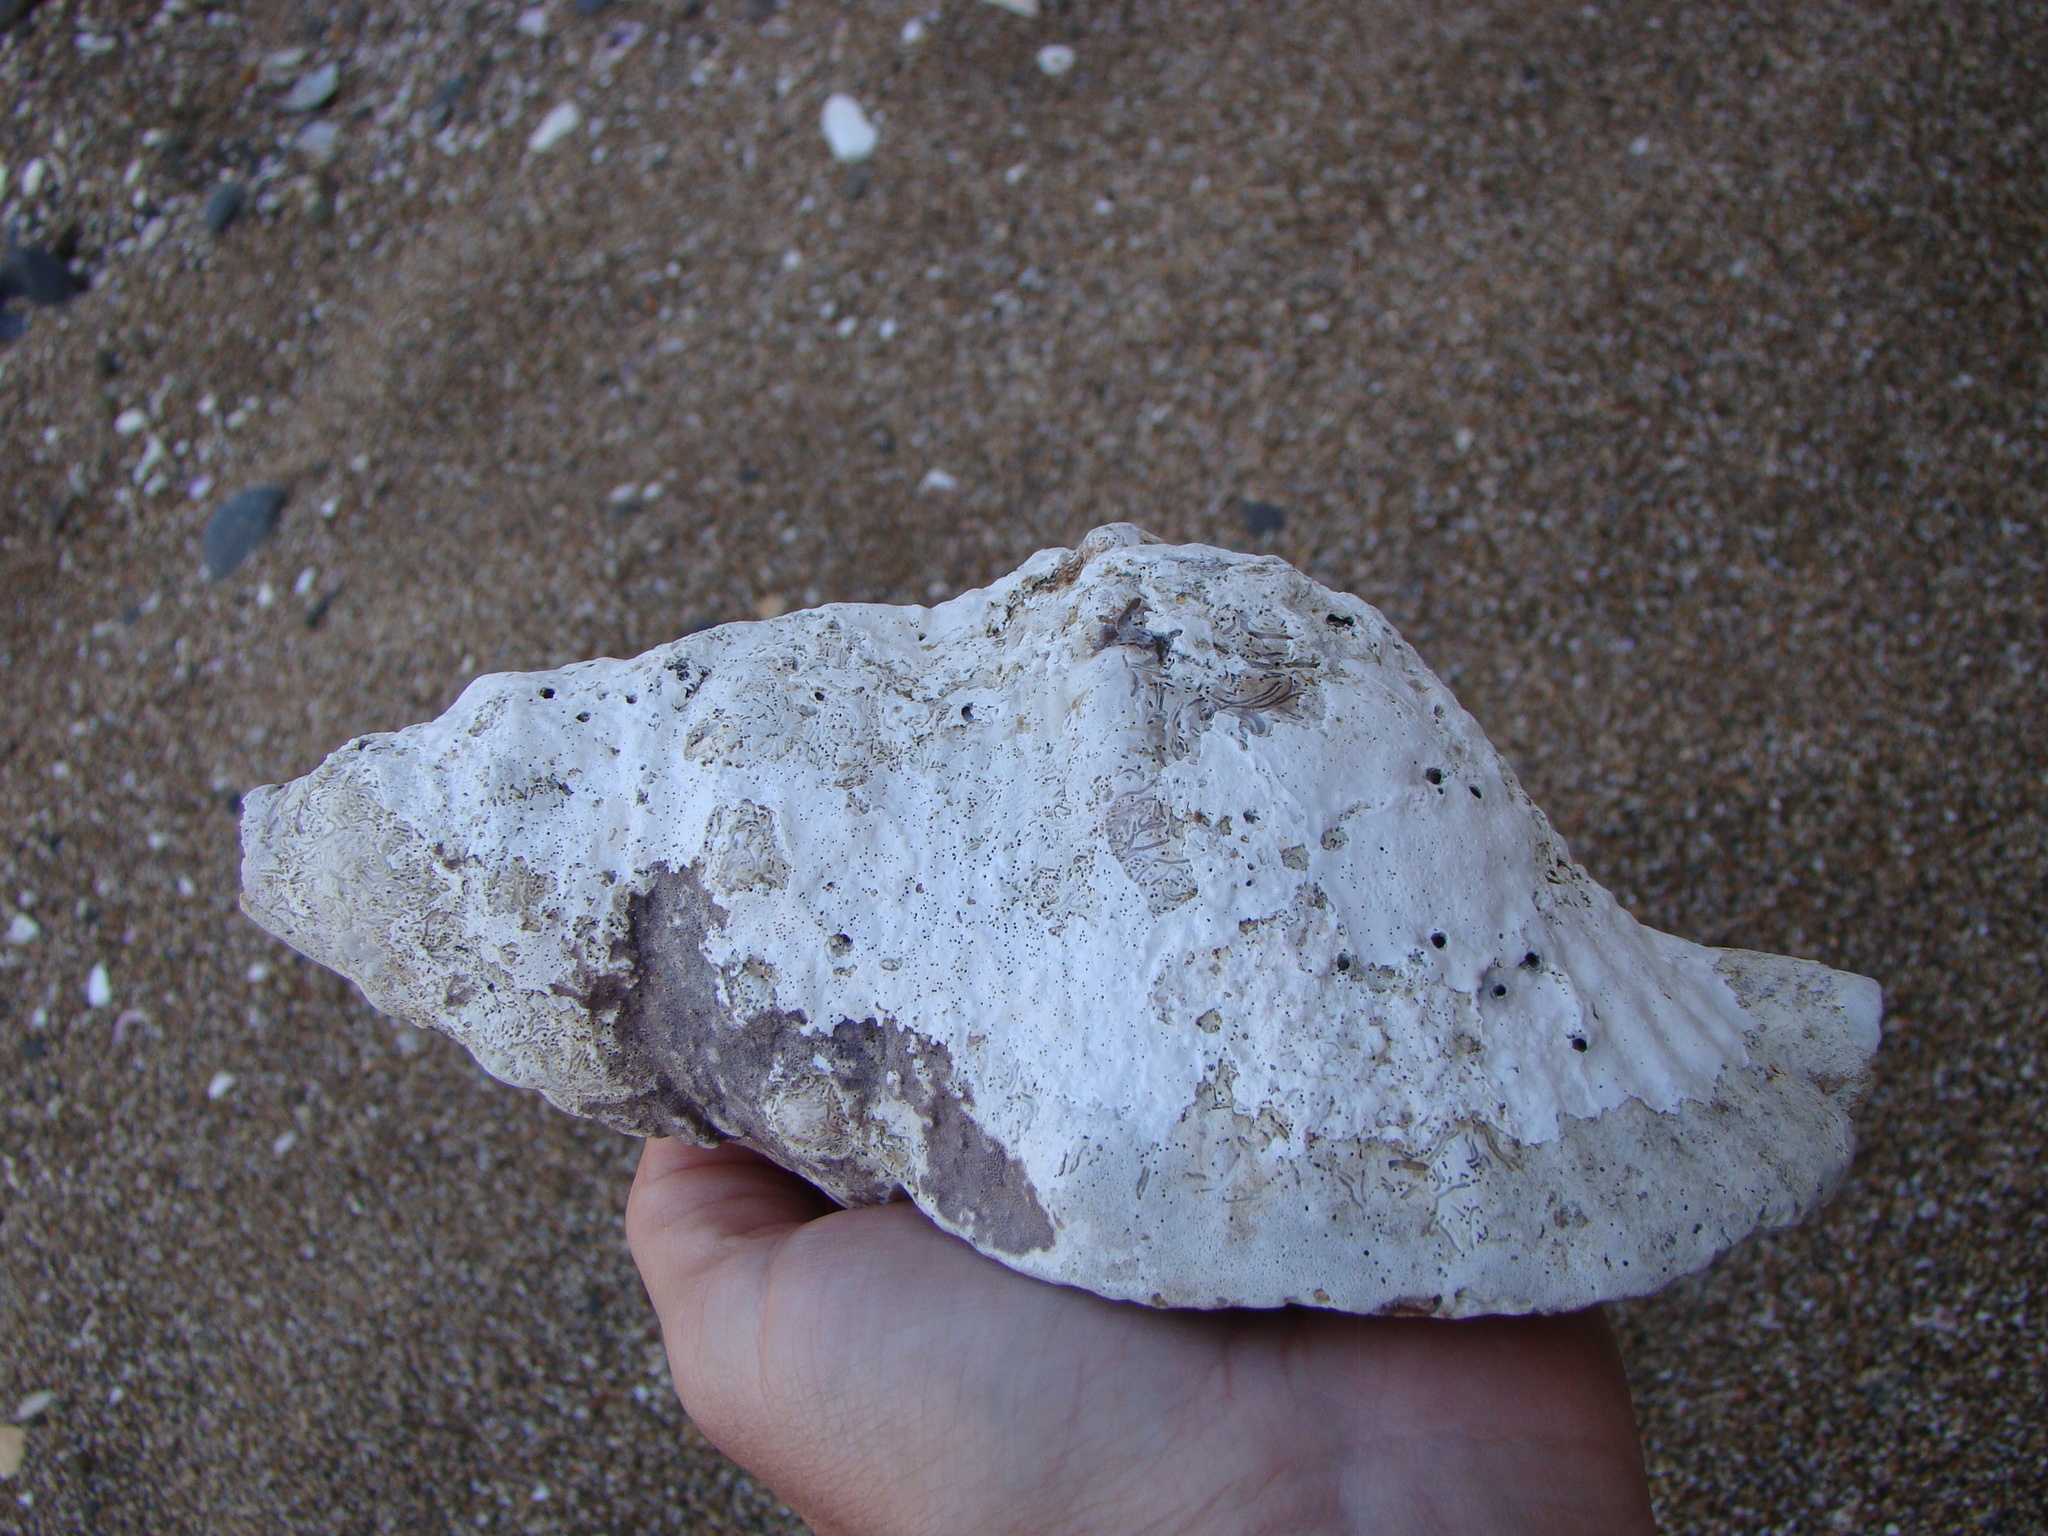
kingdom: Animalia
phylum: Mollusca
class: Gastropoda
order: Littorinimorpha
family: Charoniidae
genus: Charonia
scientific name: Charonia lampas
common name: Knobbed triton
